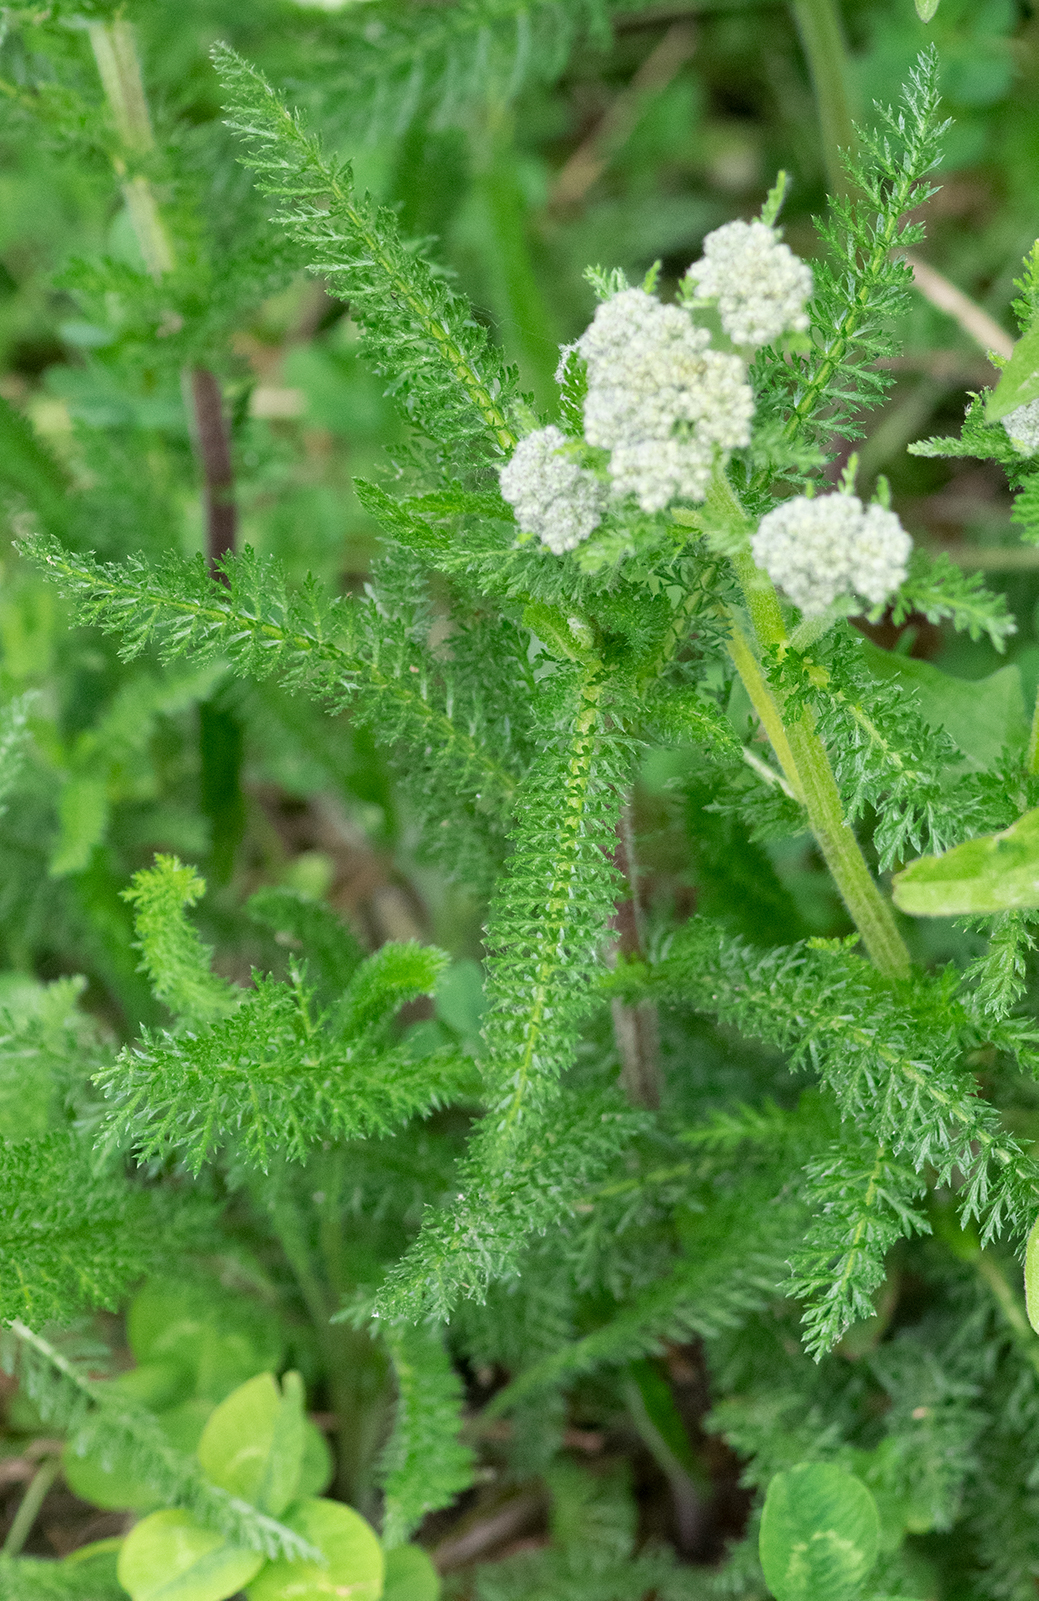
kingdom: Plantae
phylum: Tracheophyta
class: Magnoliopsida
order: Asterales
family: Asteraceae
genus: Achillea
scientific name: Achillea millefolium
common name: Yarrow
